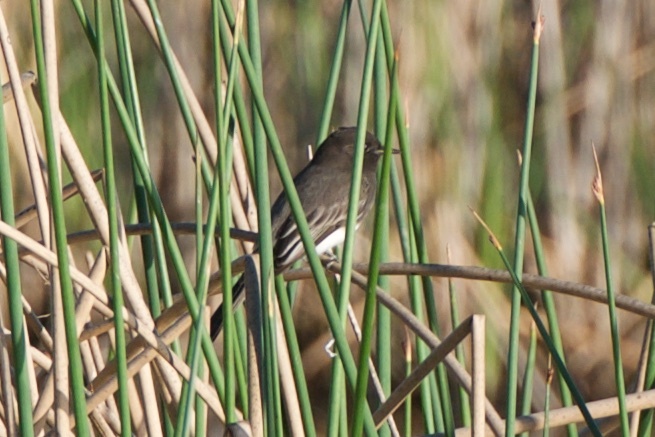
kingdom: Animalia
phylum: Chordata
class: Aves
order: Passeriformes
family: Tyrannidae
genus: Sayornis
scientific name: Sayornis nigricans
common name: Black phoebe
